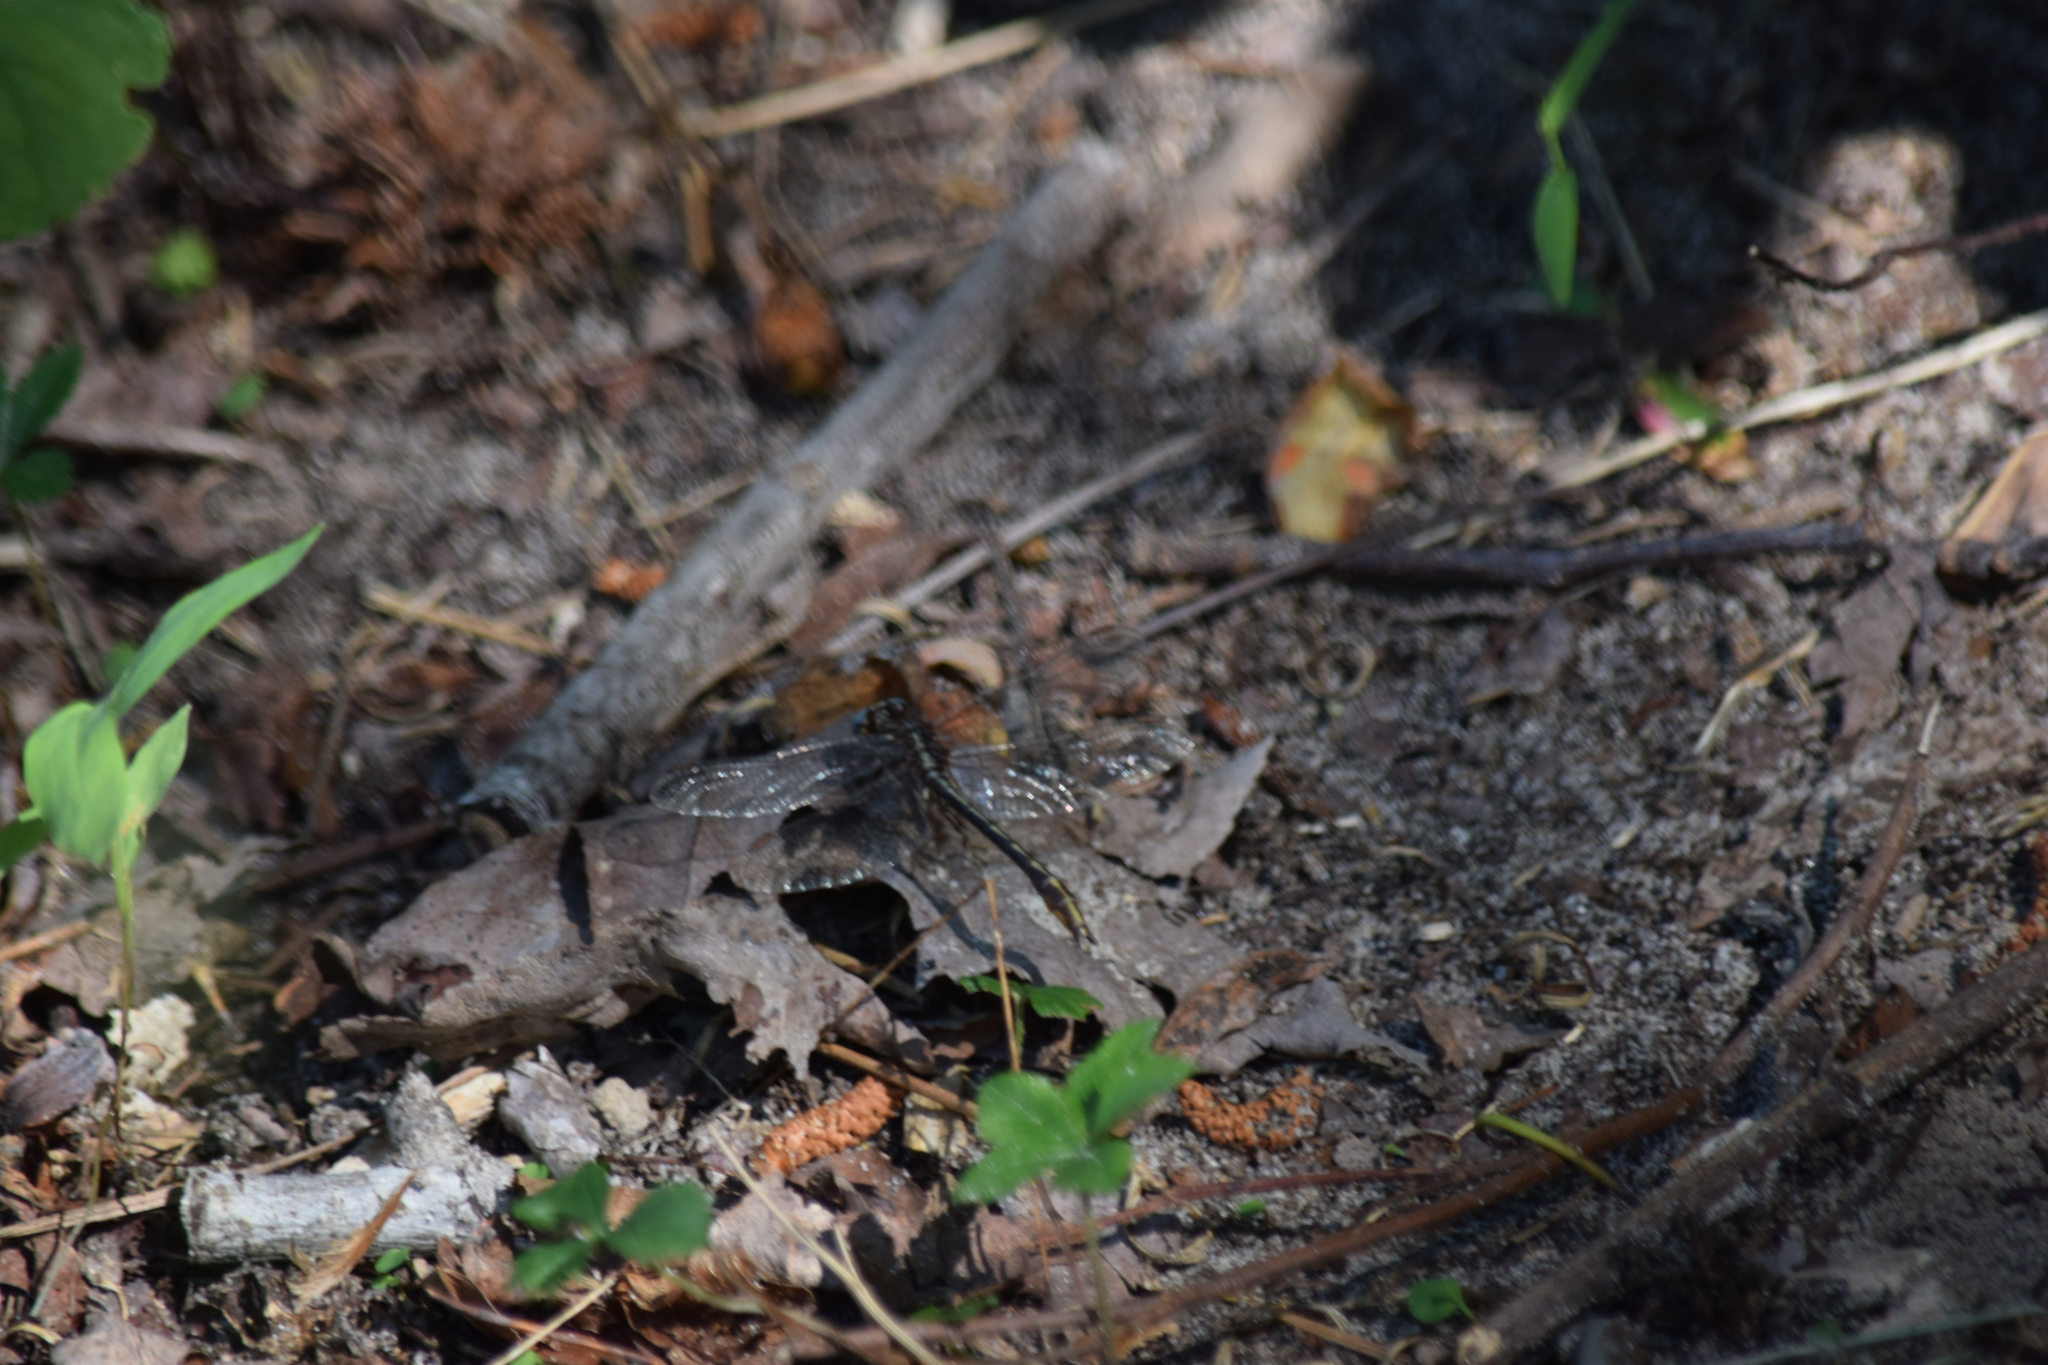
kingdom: Animalia
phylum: Arthropoda
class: Insecta
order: Odonata
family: Macromiidae
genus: Didymops
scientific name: Didymops transversa
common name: Stream cruiser
